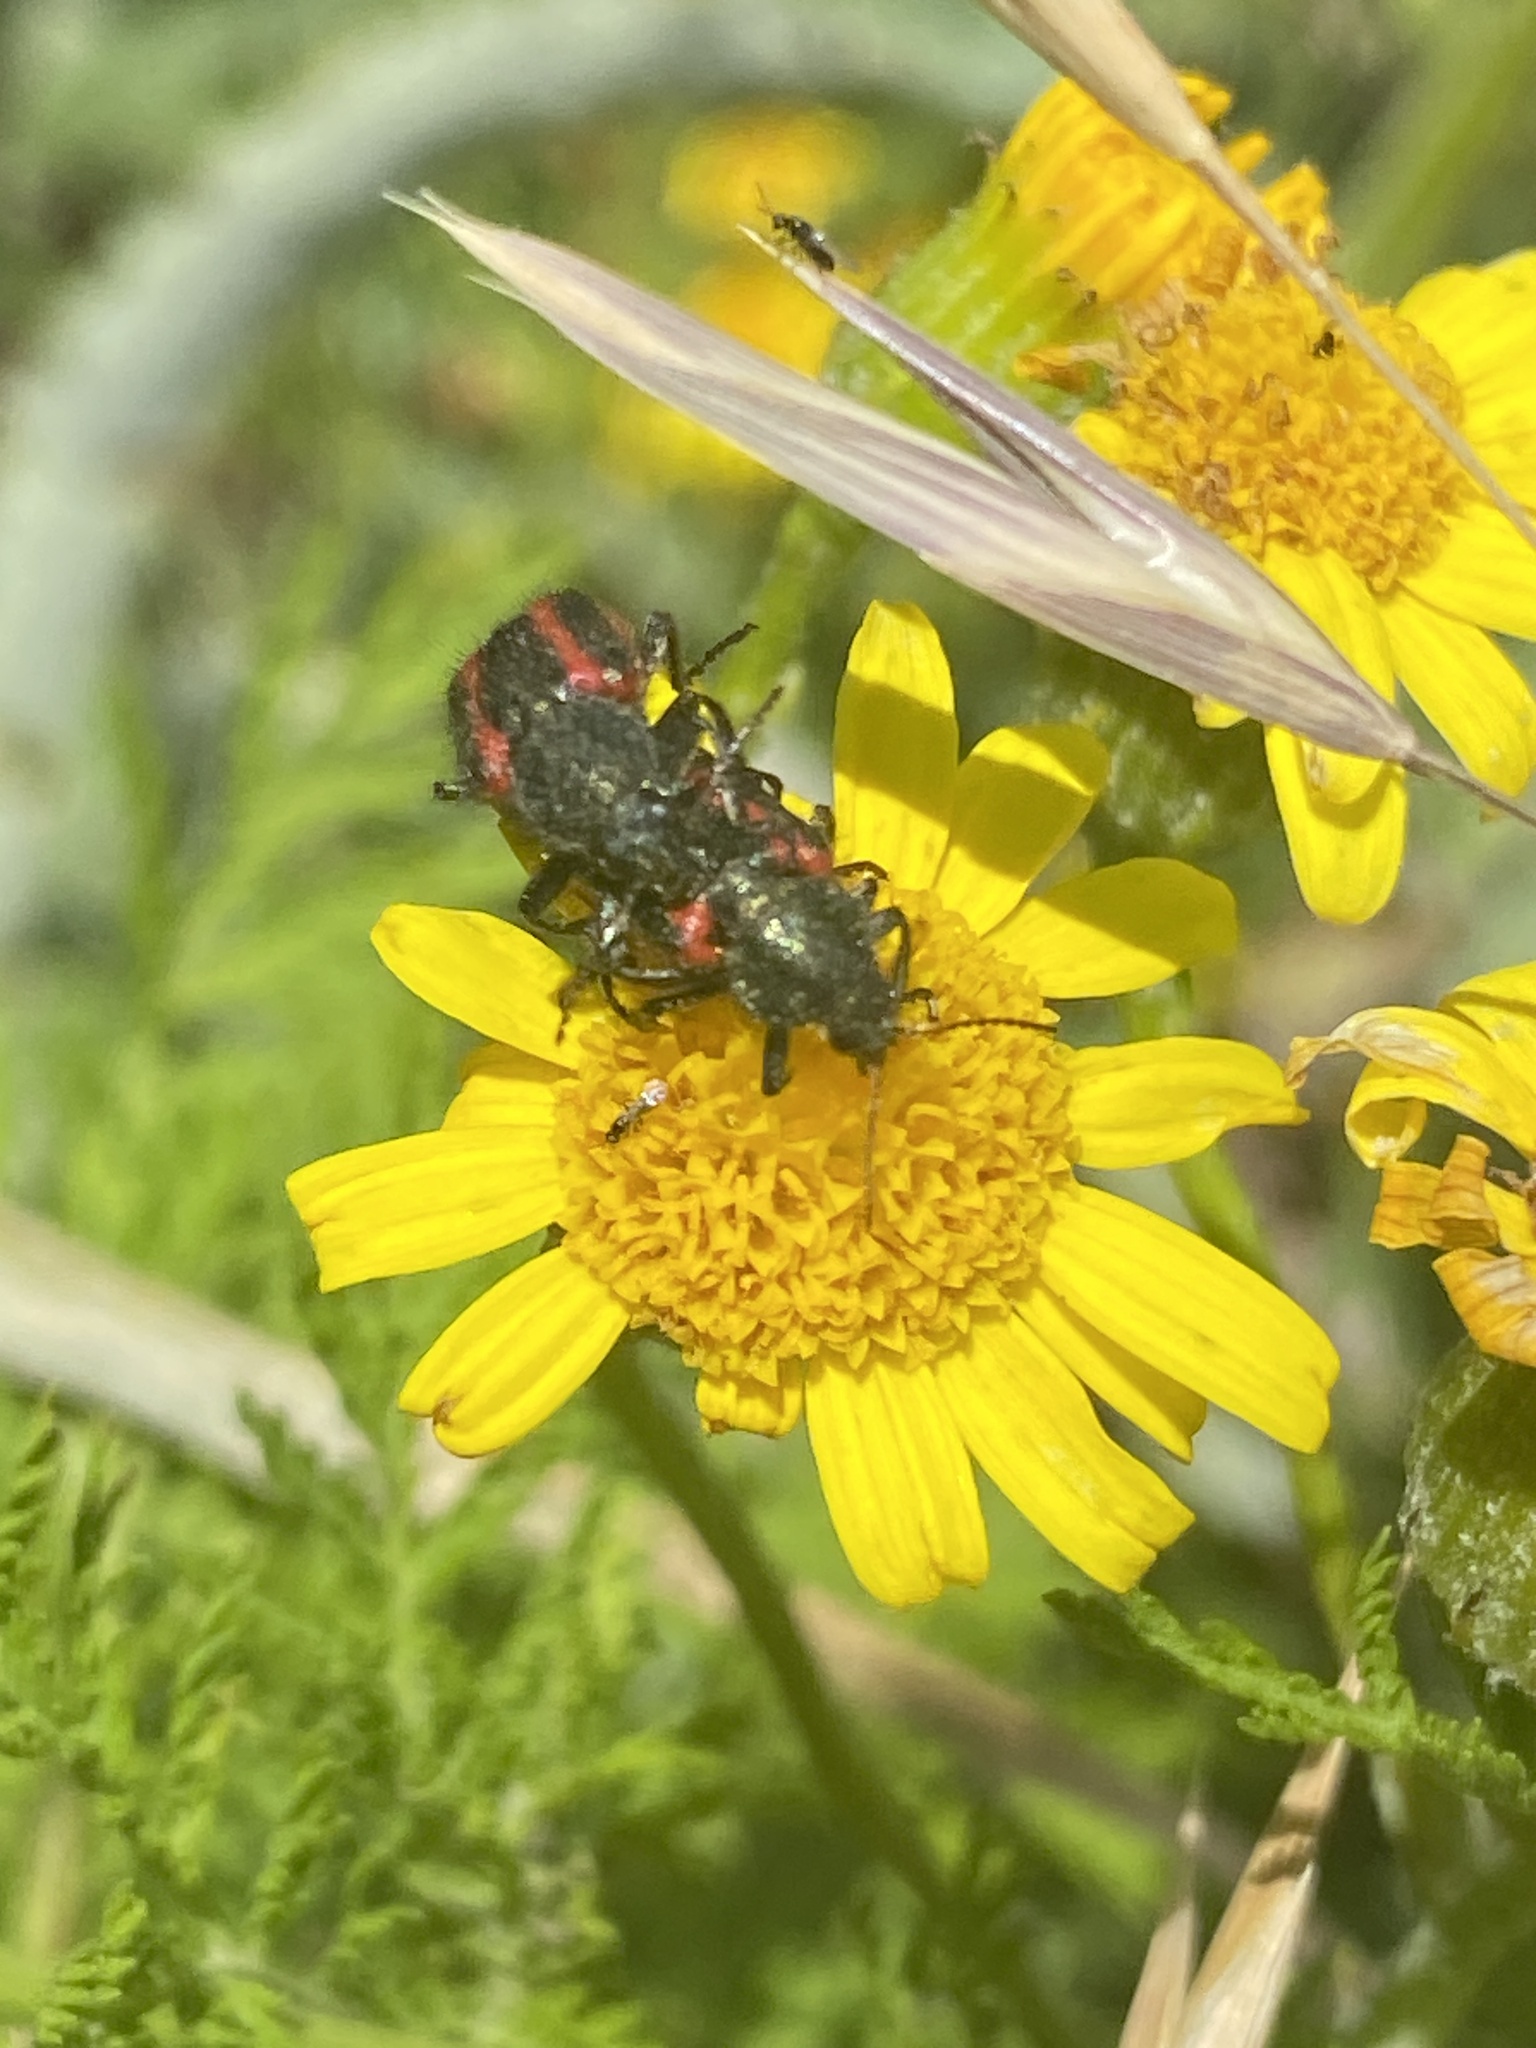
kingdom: Animalia
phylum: Arthropoda
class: Insecta
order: Coleoptera
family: Melyridae
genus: Astylus
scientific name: Astylus
